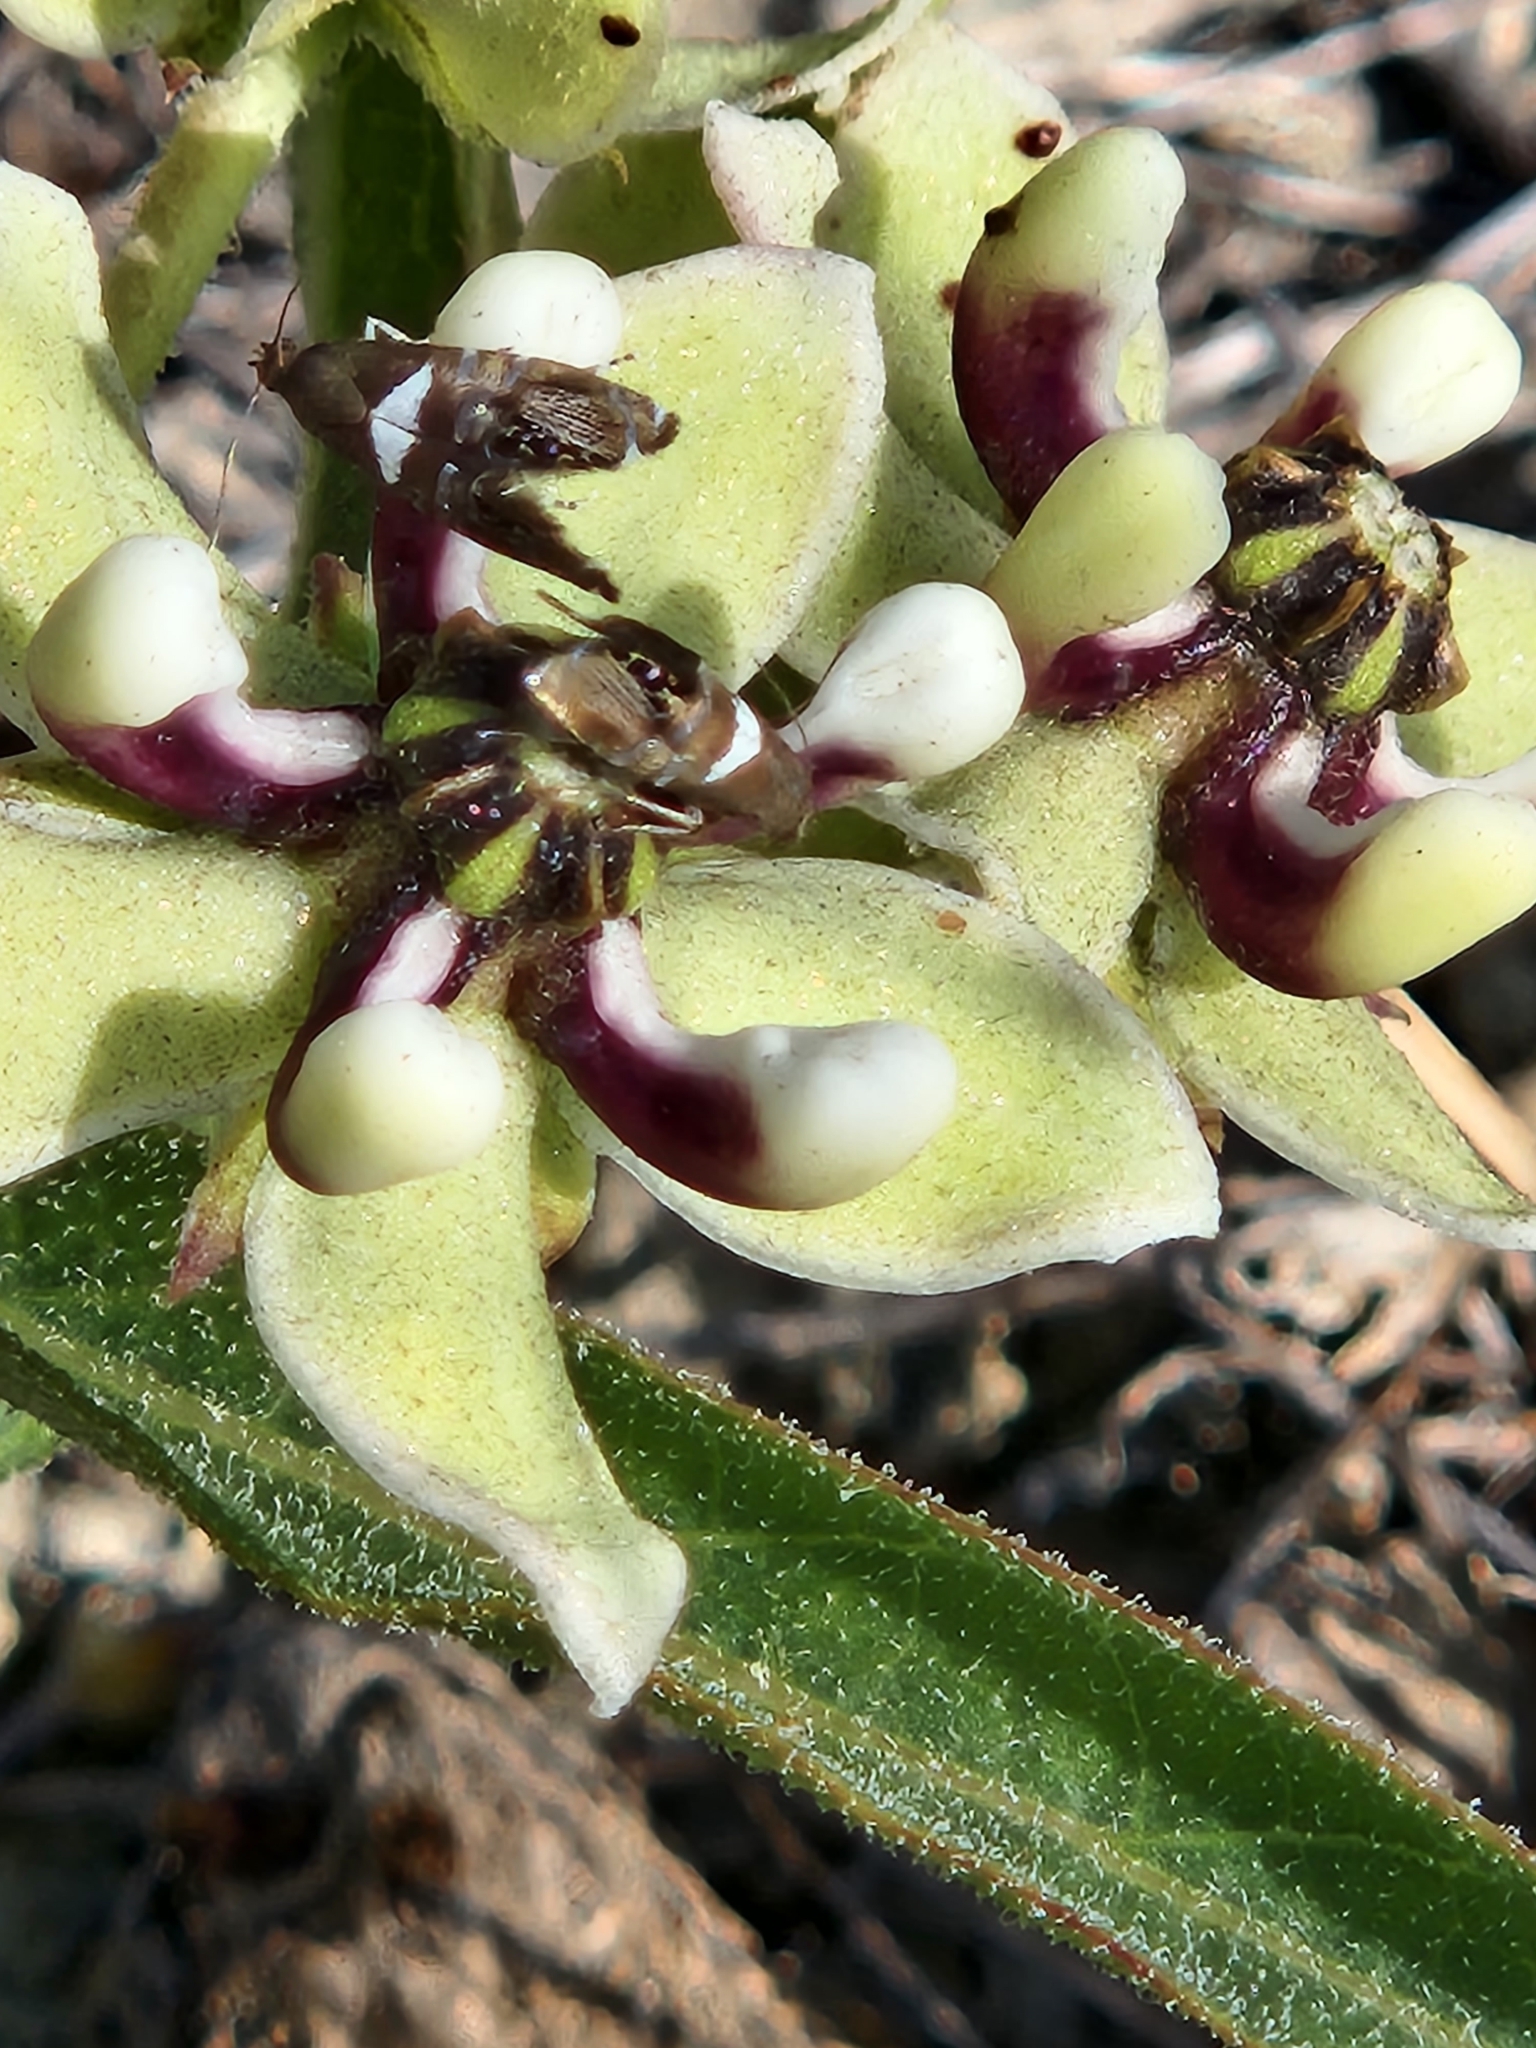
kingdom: Animalia
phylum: Arthropoda
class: Insecta
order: Lepidoptera
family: Glyphipterigidae
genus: Glyphipterix
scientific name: Glyphipterix circumscriptella
